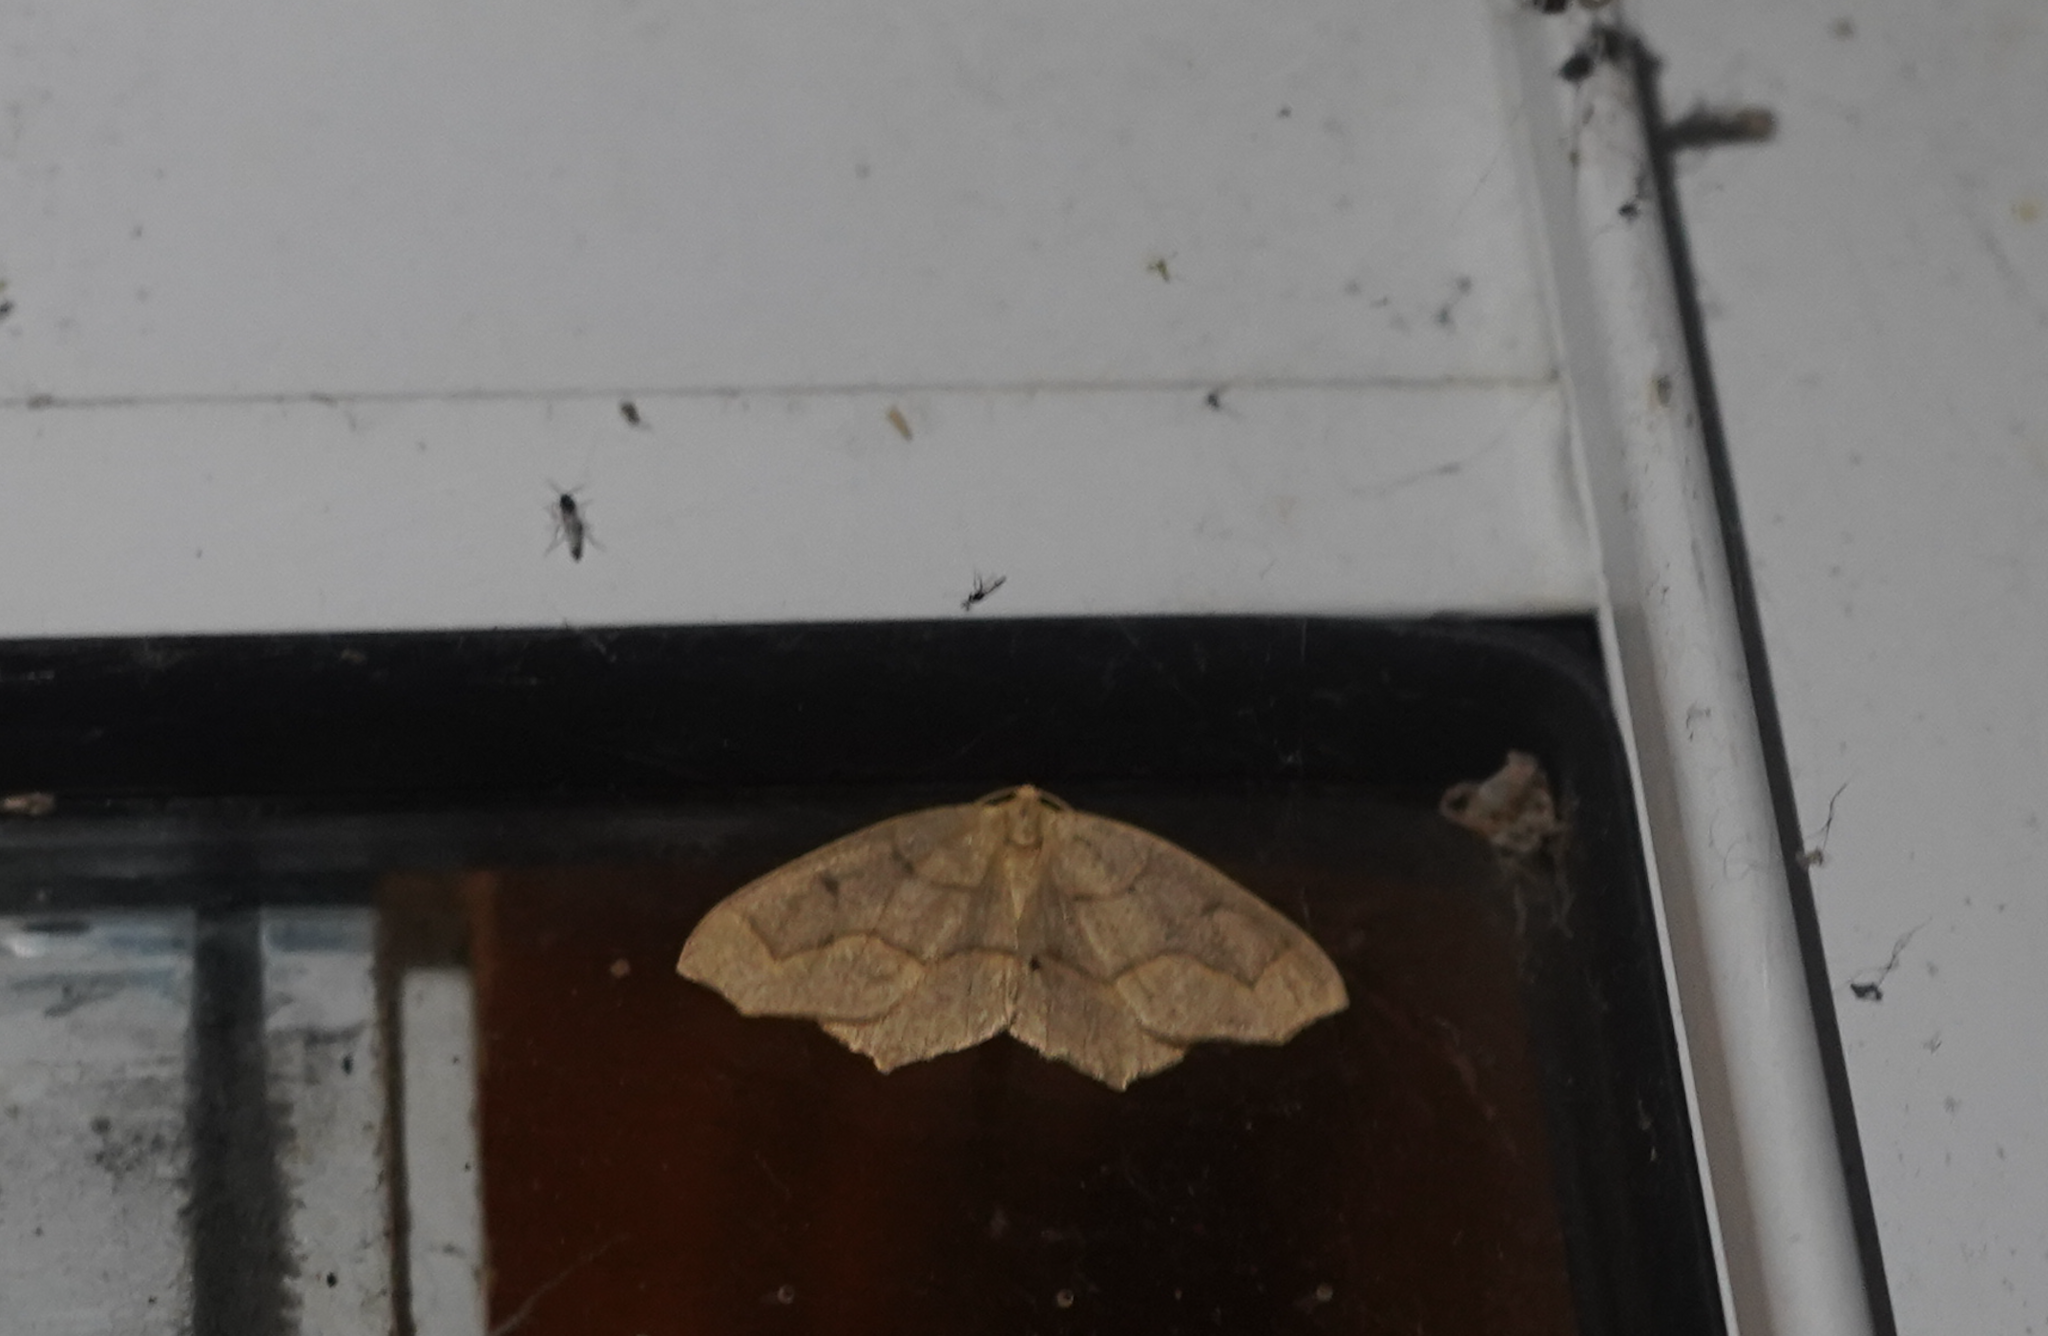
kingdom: Animalia
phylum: Arthropoda
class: Insecta
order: Lepidoptera
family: Geometridae
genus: Lambdina
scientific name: Lambdina fiscellaria
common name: Hemlock looper
